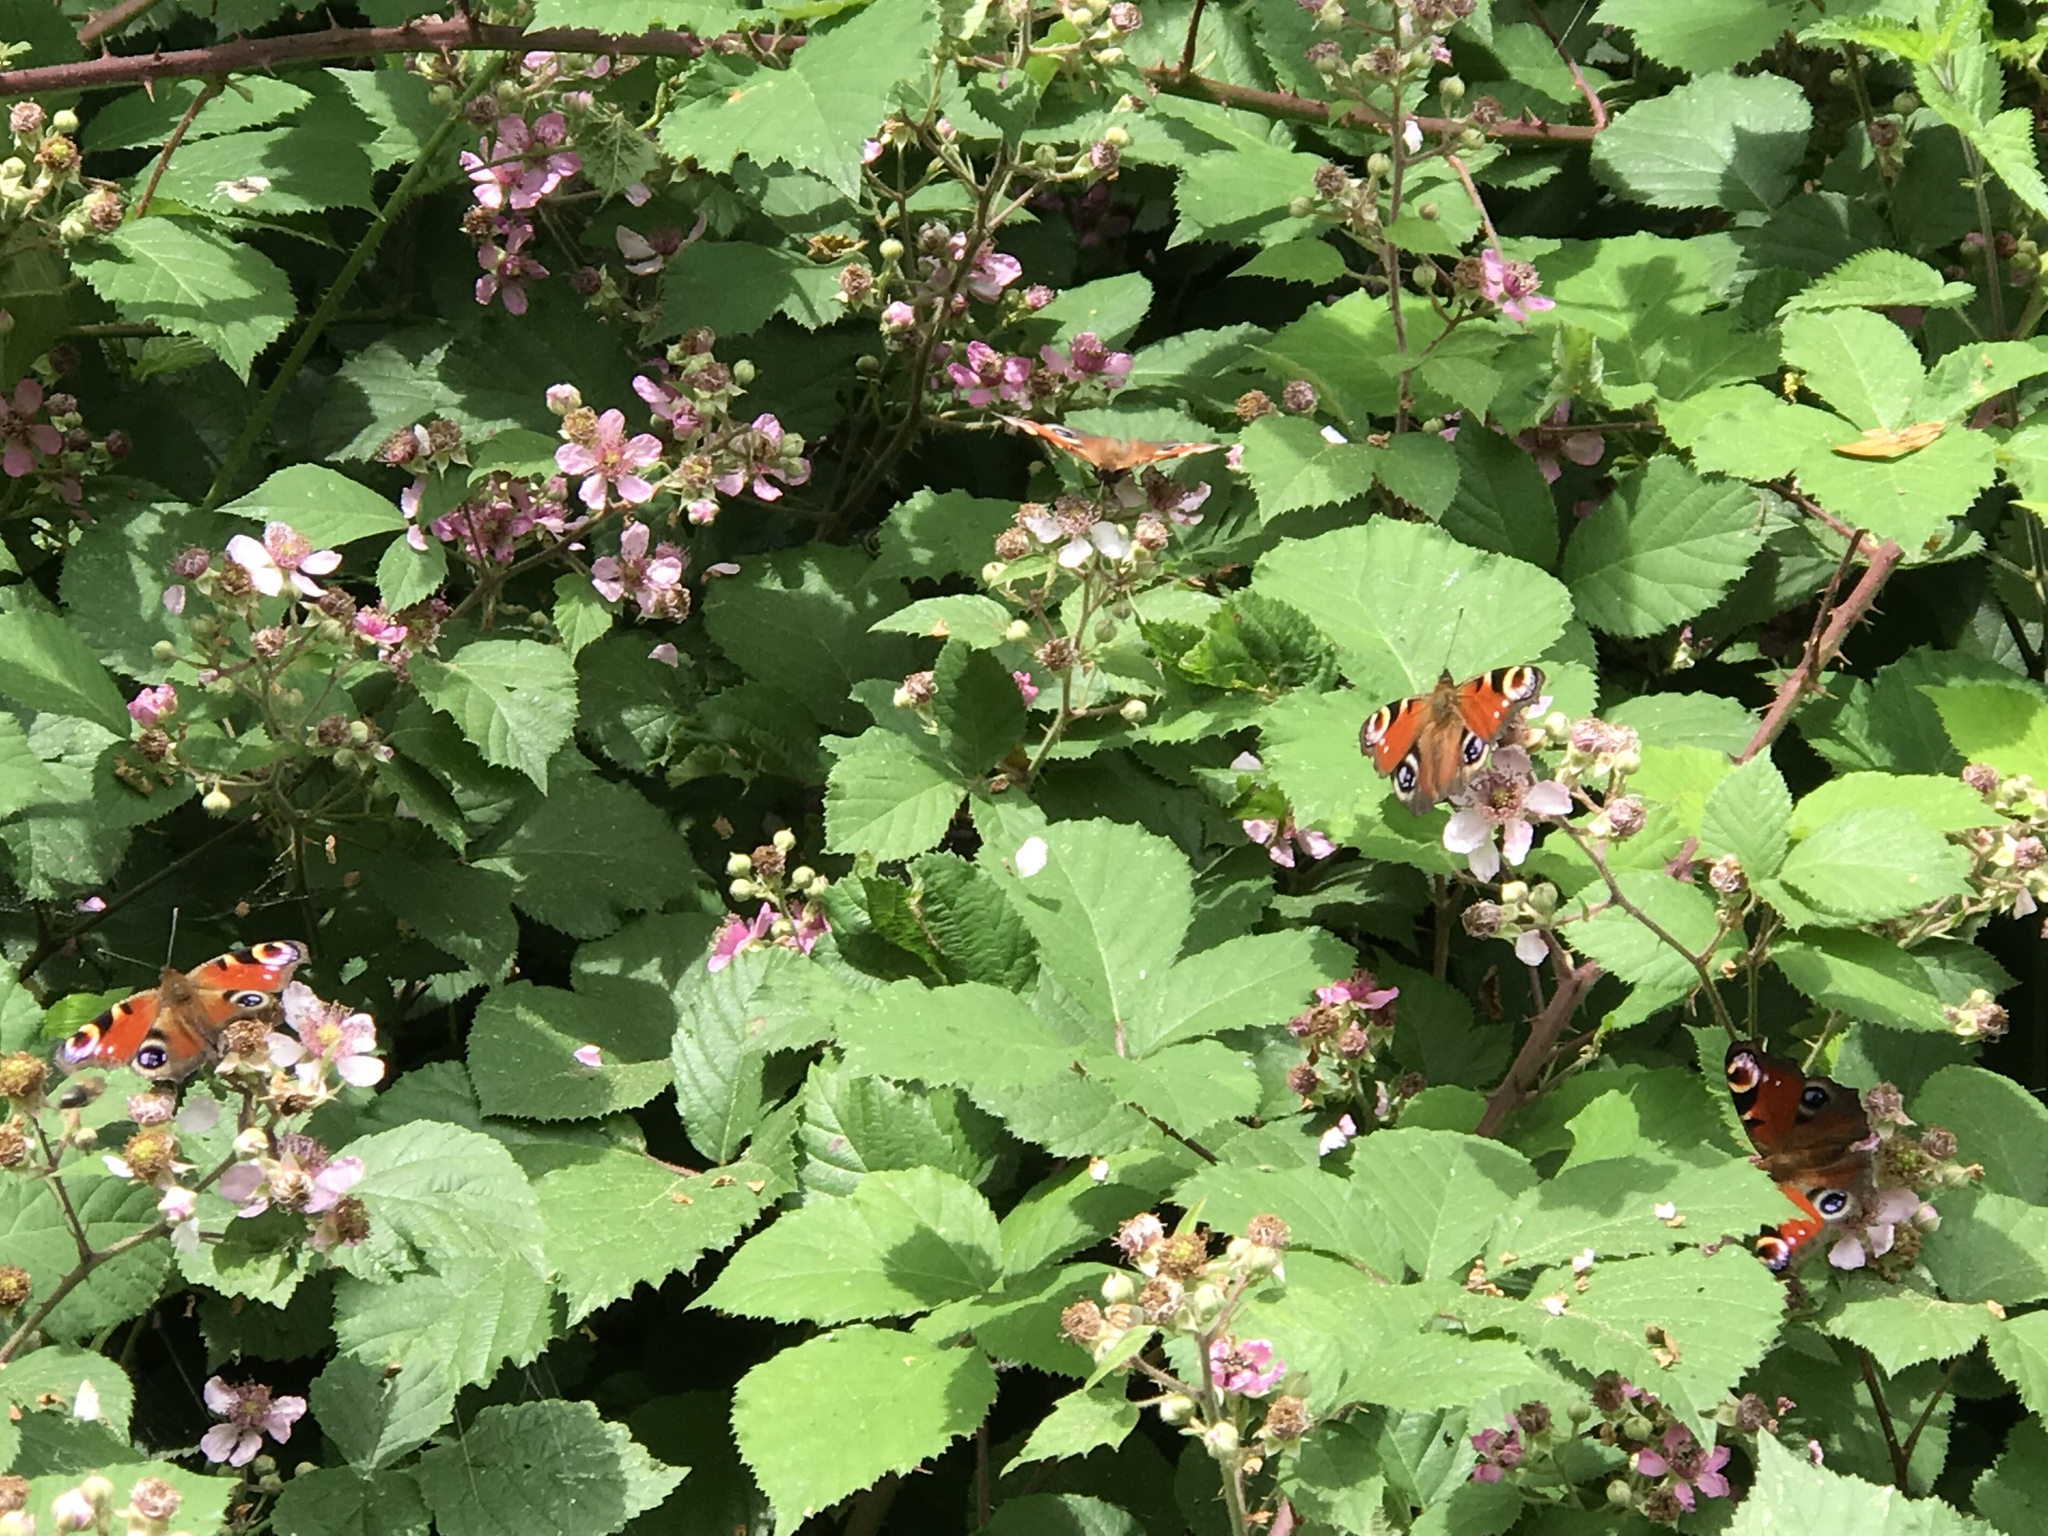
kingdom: Animalia
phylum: Arthropoda
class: Insecta
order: Lepidoptera
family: Nymphalidae
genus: Aglais
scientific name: Aglais io
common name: Peacock
